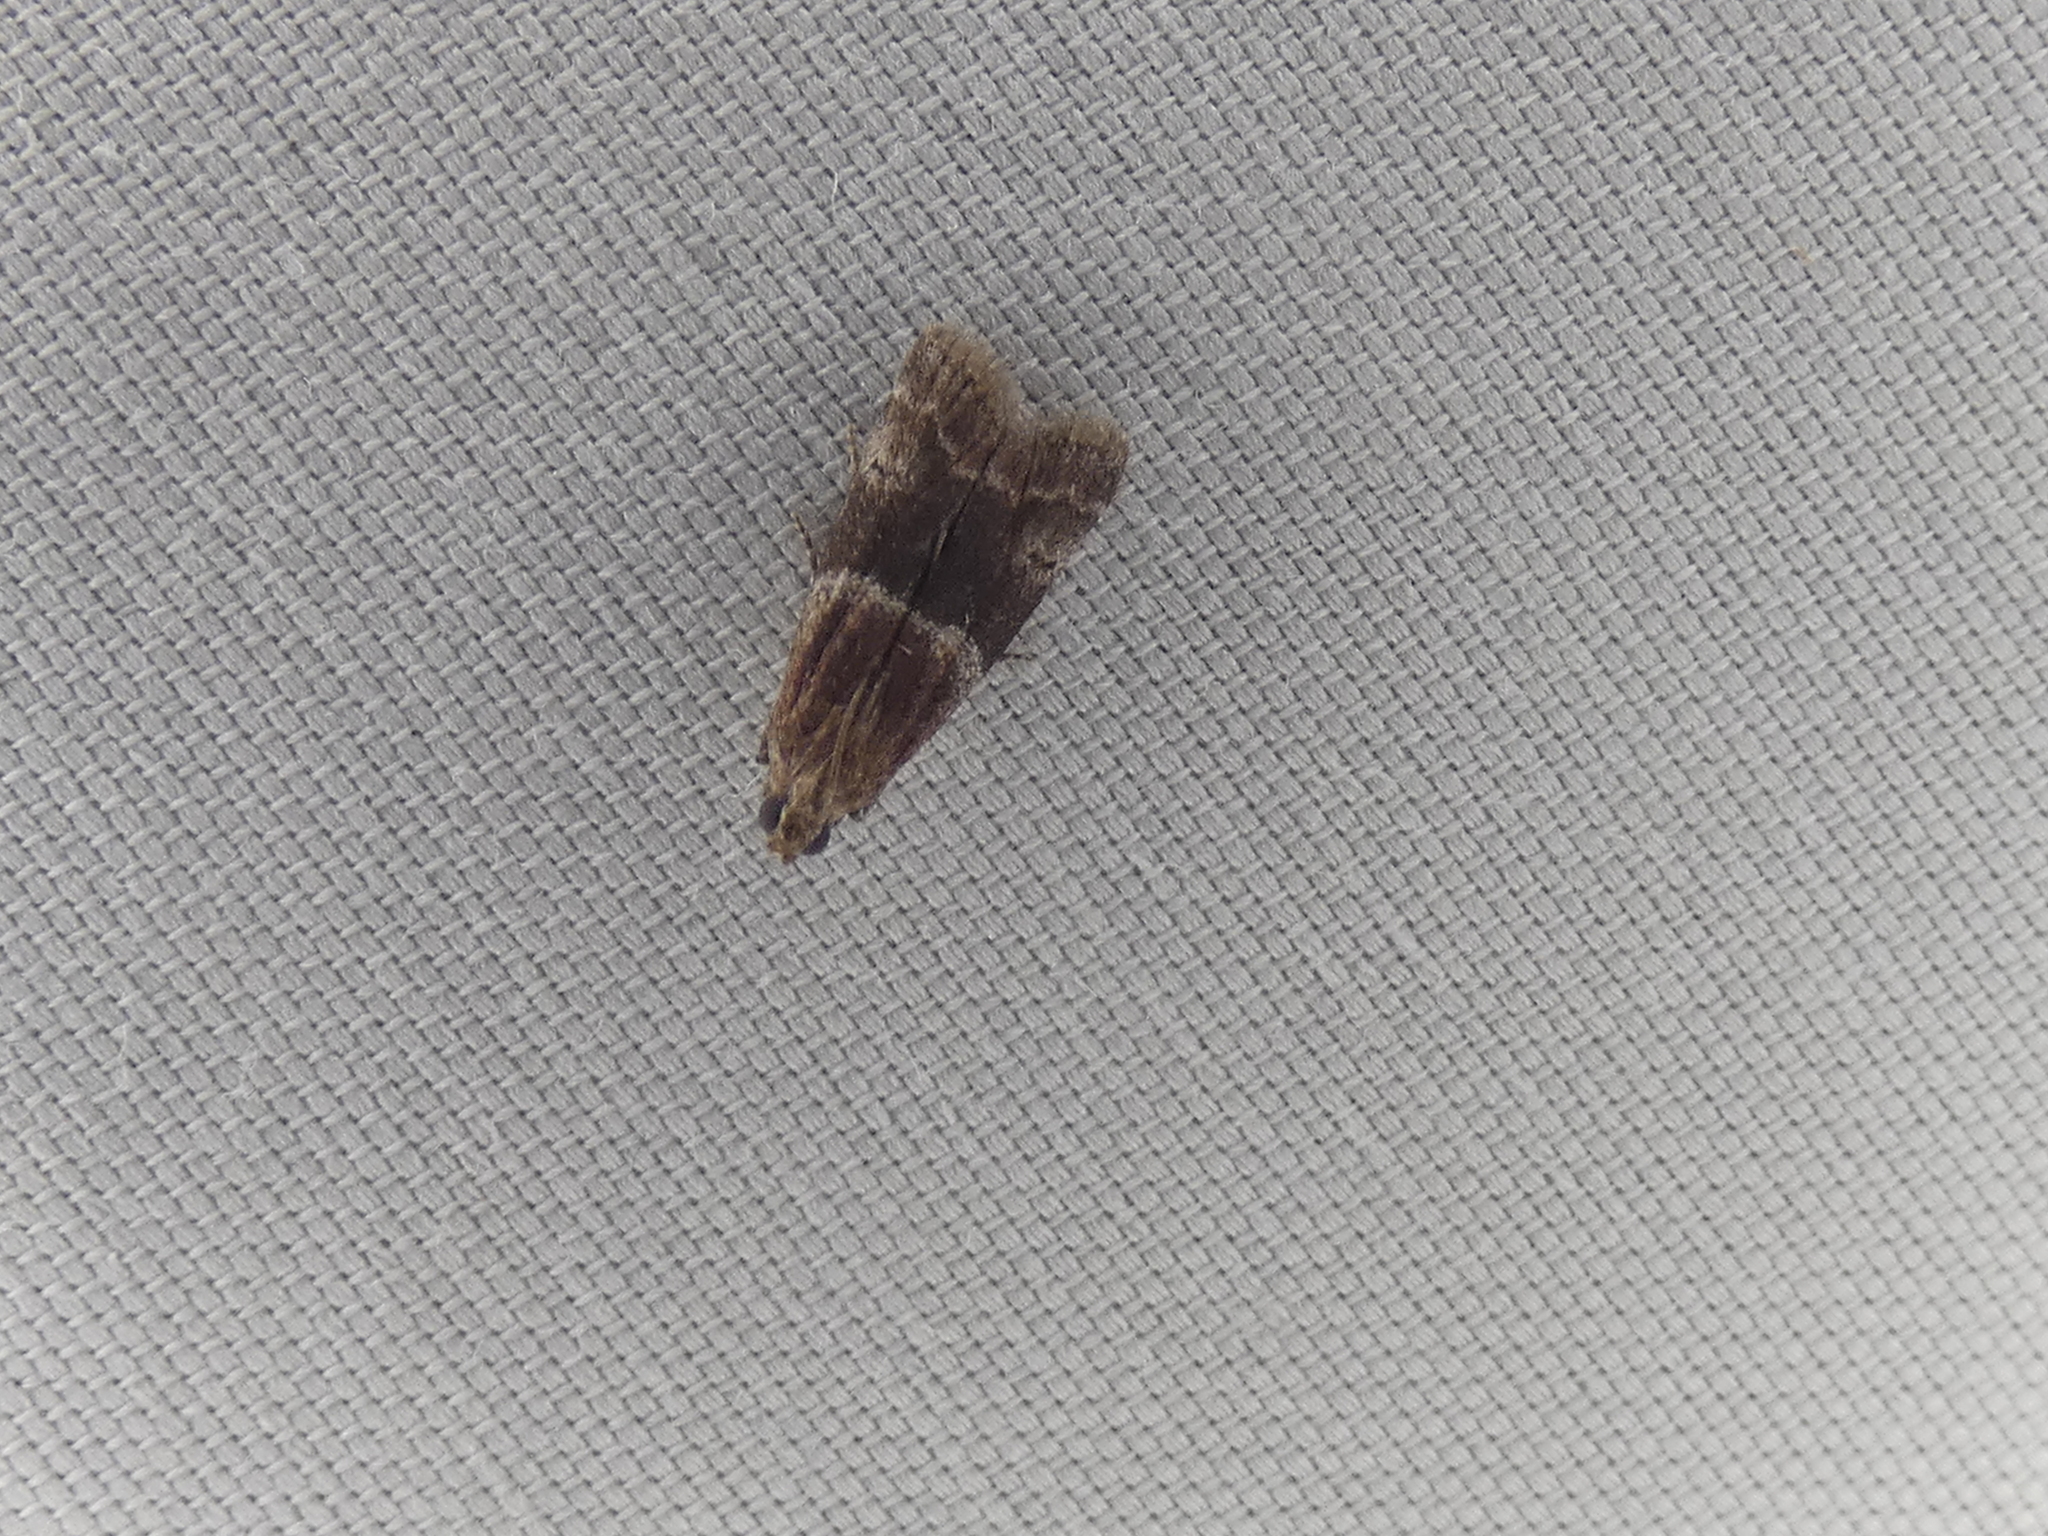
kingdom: Animalia
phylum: Arthropoda
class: Insecta
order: Lepidoptera
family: Pyralidae
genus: Moodna
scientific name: Moodna pallidostrinella
